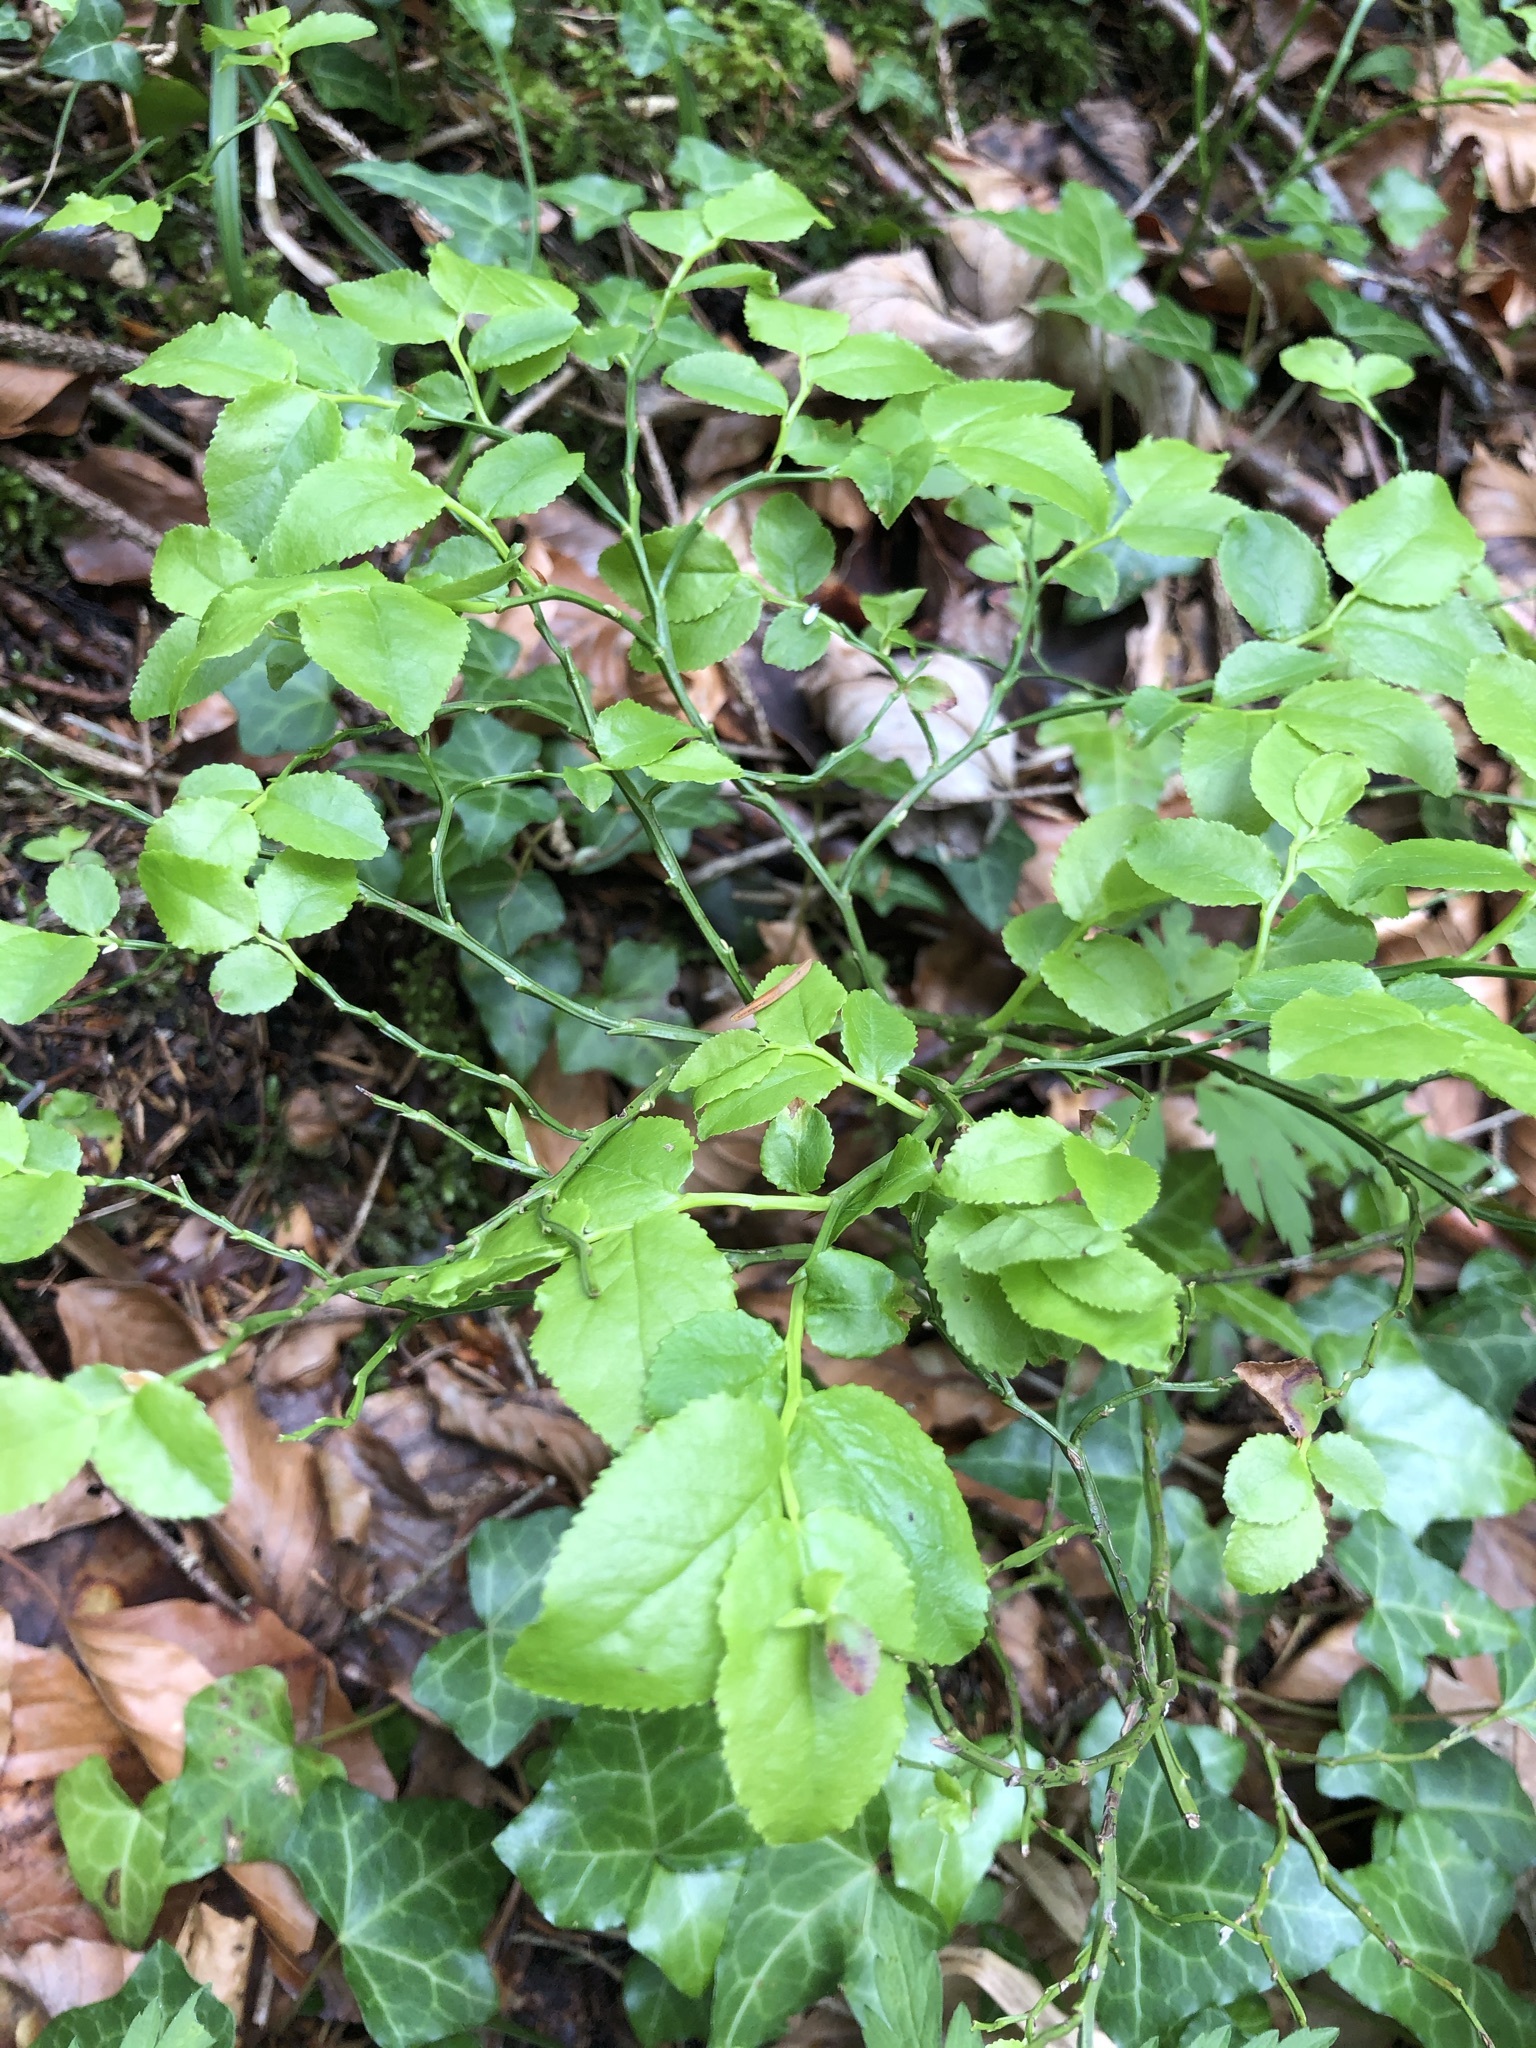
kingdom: Plantae
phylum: Tracheophyta
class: Magnoliopsida
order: Ericales
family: Ericaceae
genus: Vaccinium
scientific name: Vaccinium myrtillus
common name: Bilberry
